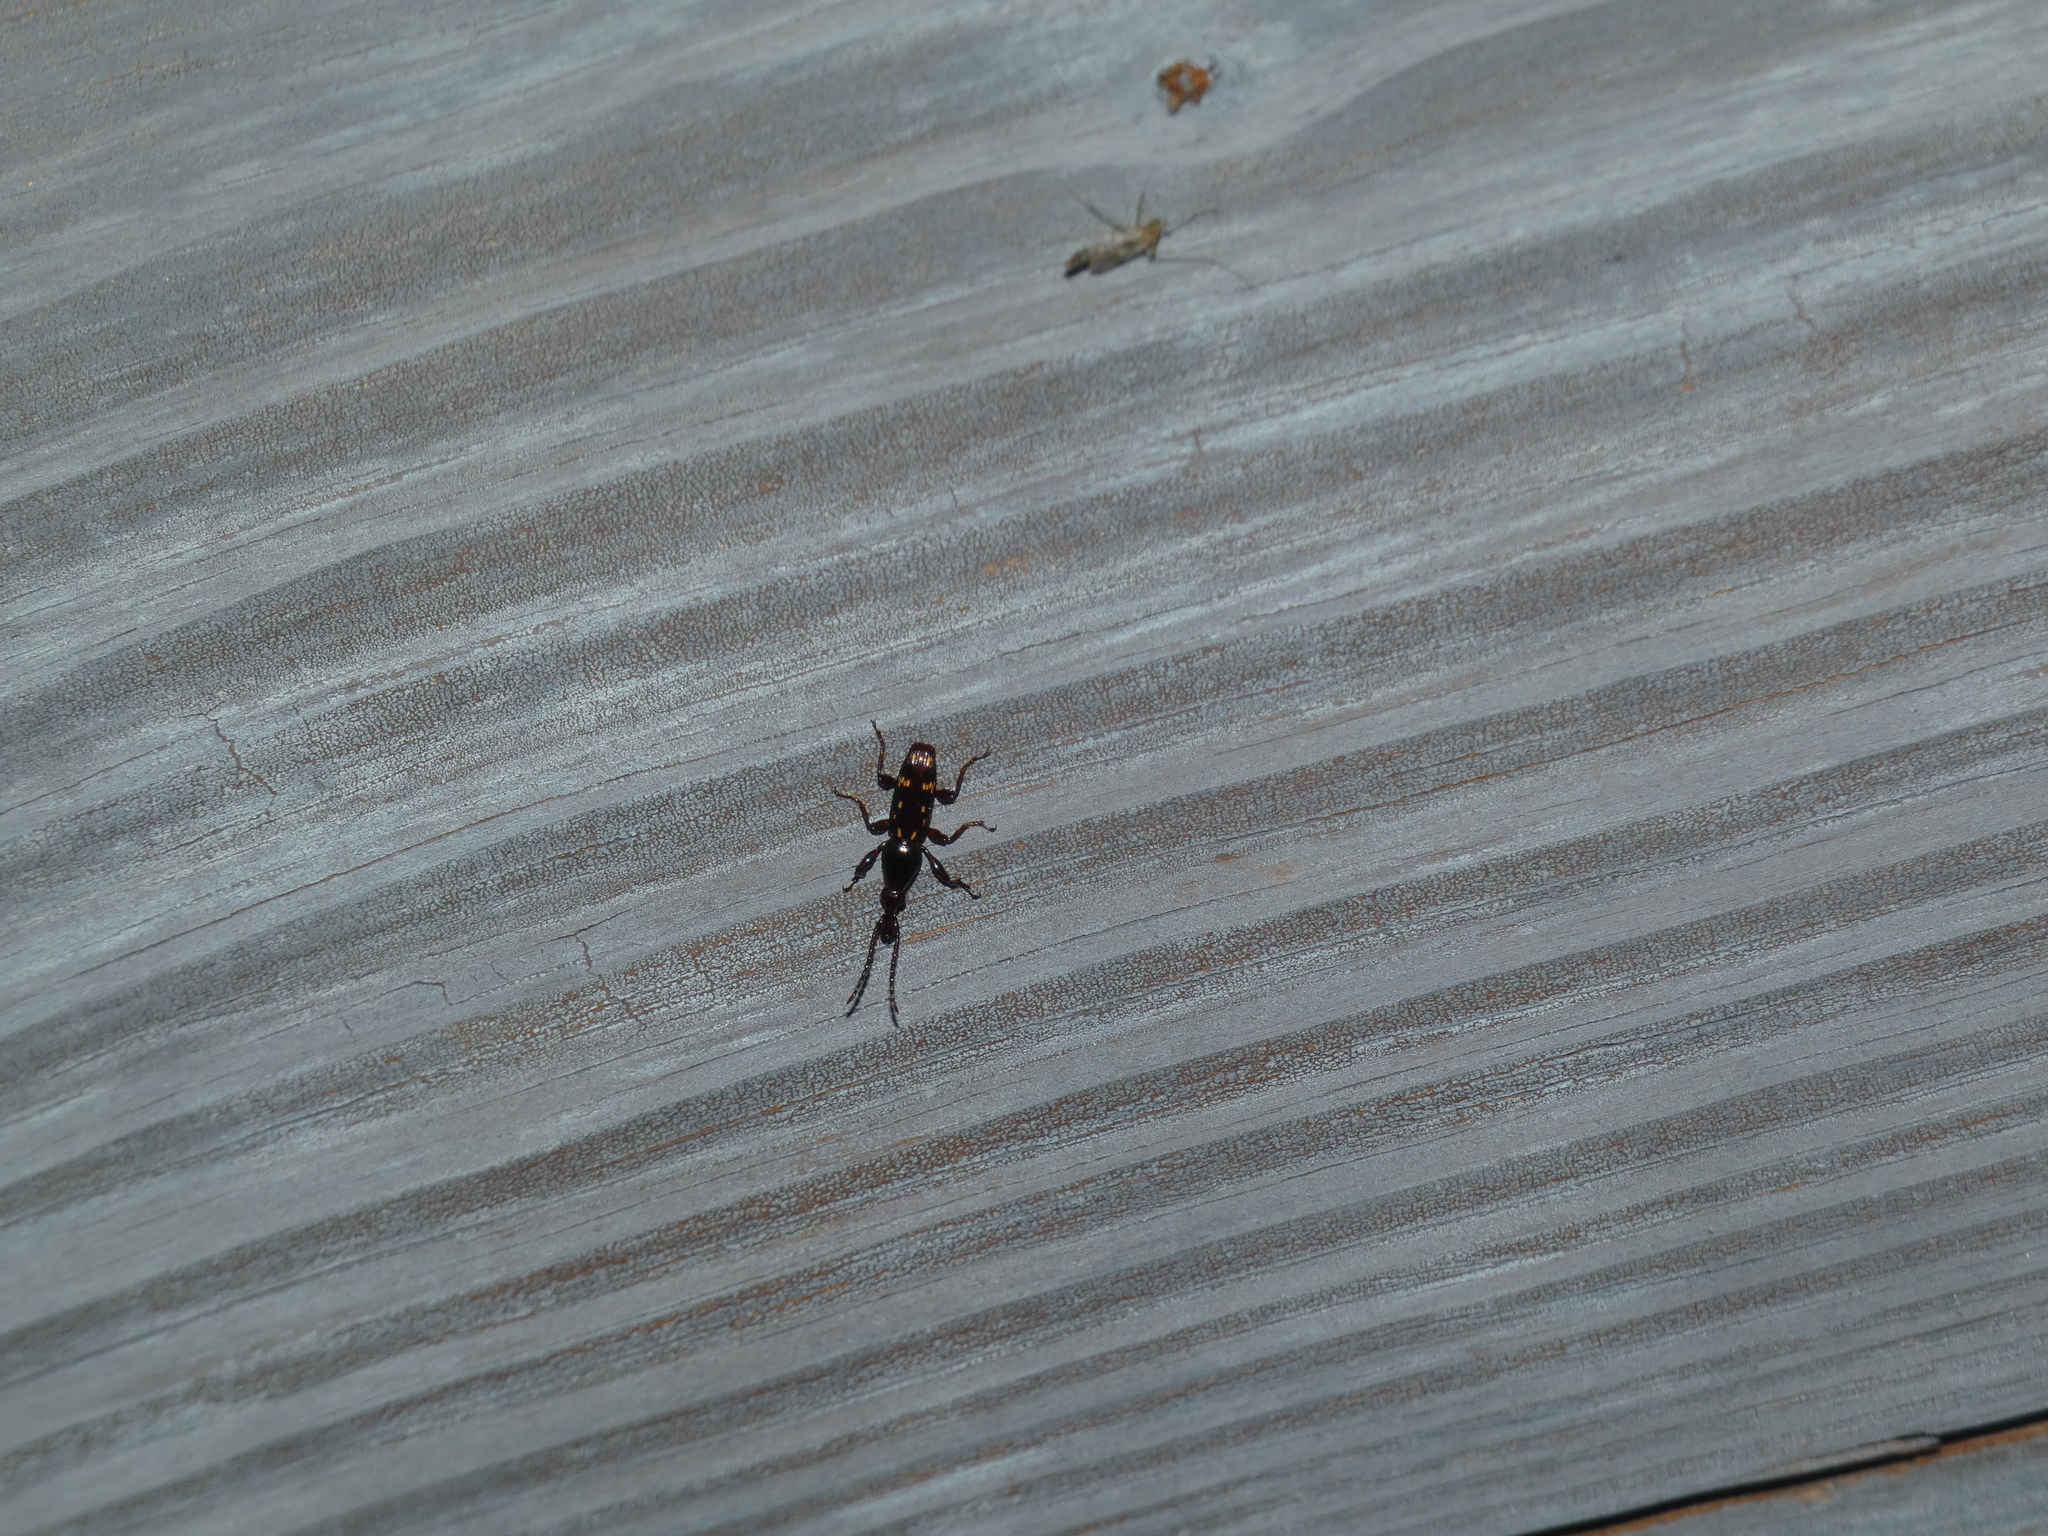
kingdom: Animalia
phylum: Arthropoda
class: Insecta
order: Coleoptera
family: Brentidae
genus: Arrenodes
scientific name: Arrenodes minutus
